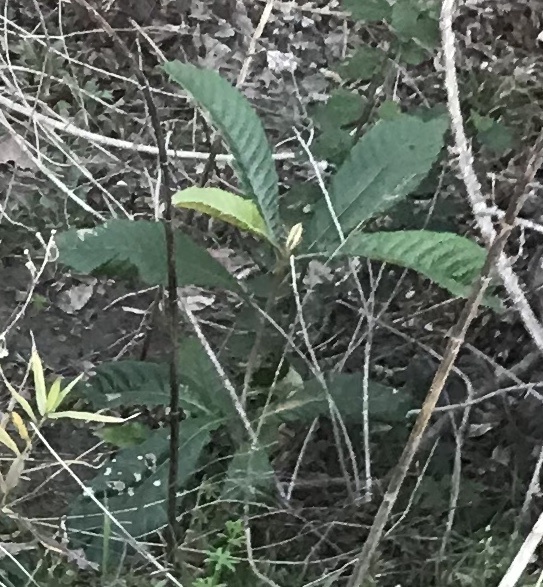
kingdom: Plantae
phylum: Tracheophyta
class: Magnoliopsida
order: Rosales
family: Rosaceae
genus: Rhaphiolepis
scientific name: Rhaphiolepis bibas
